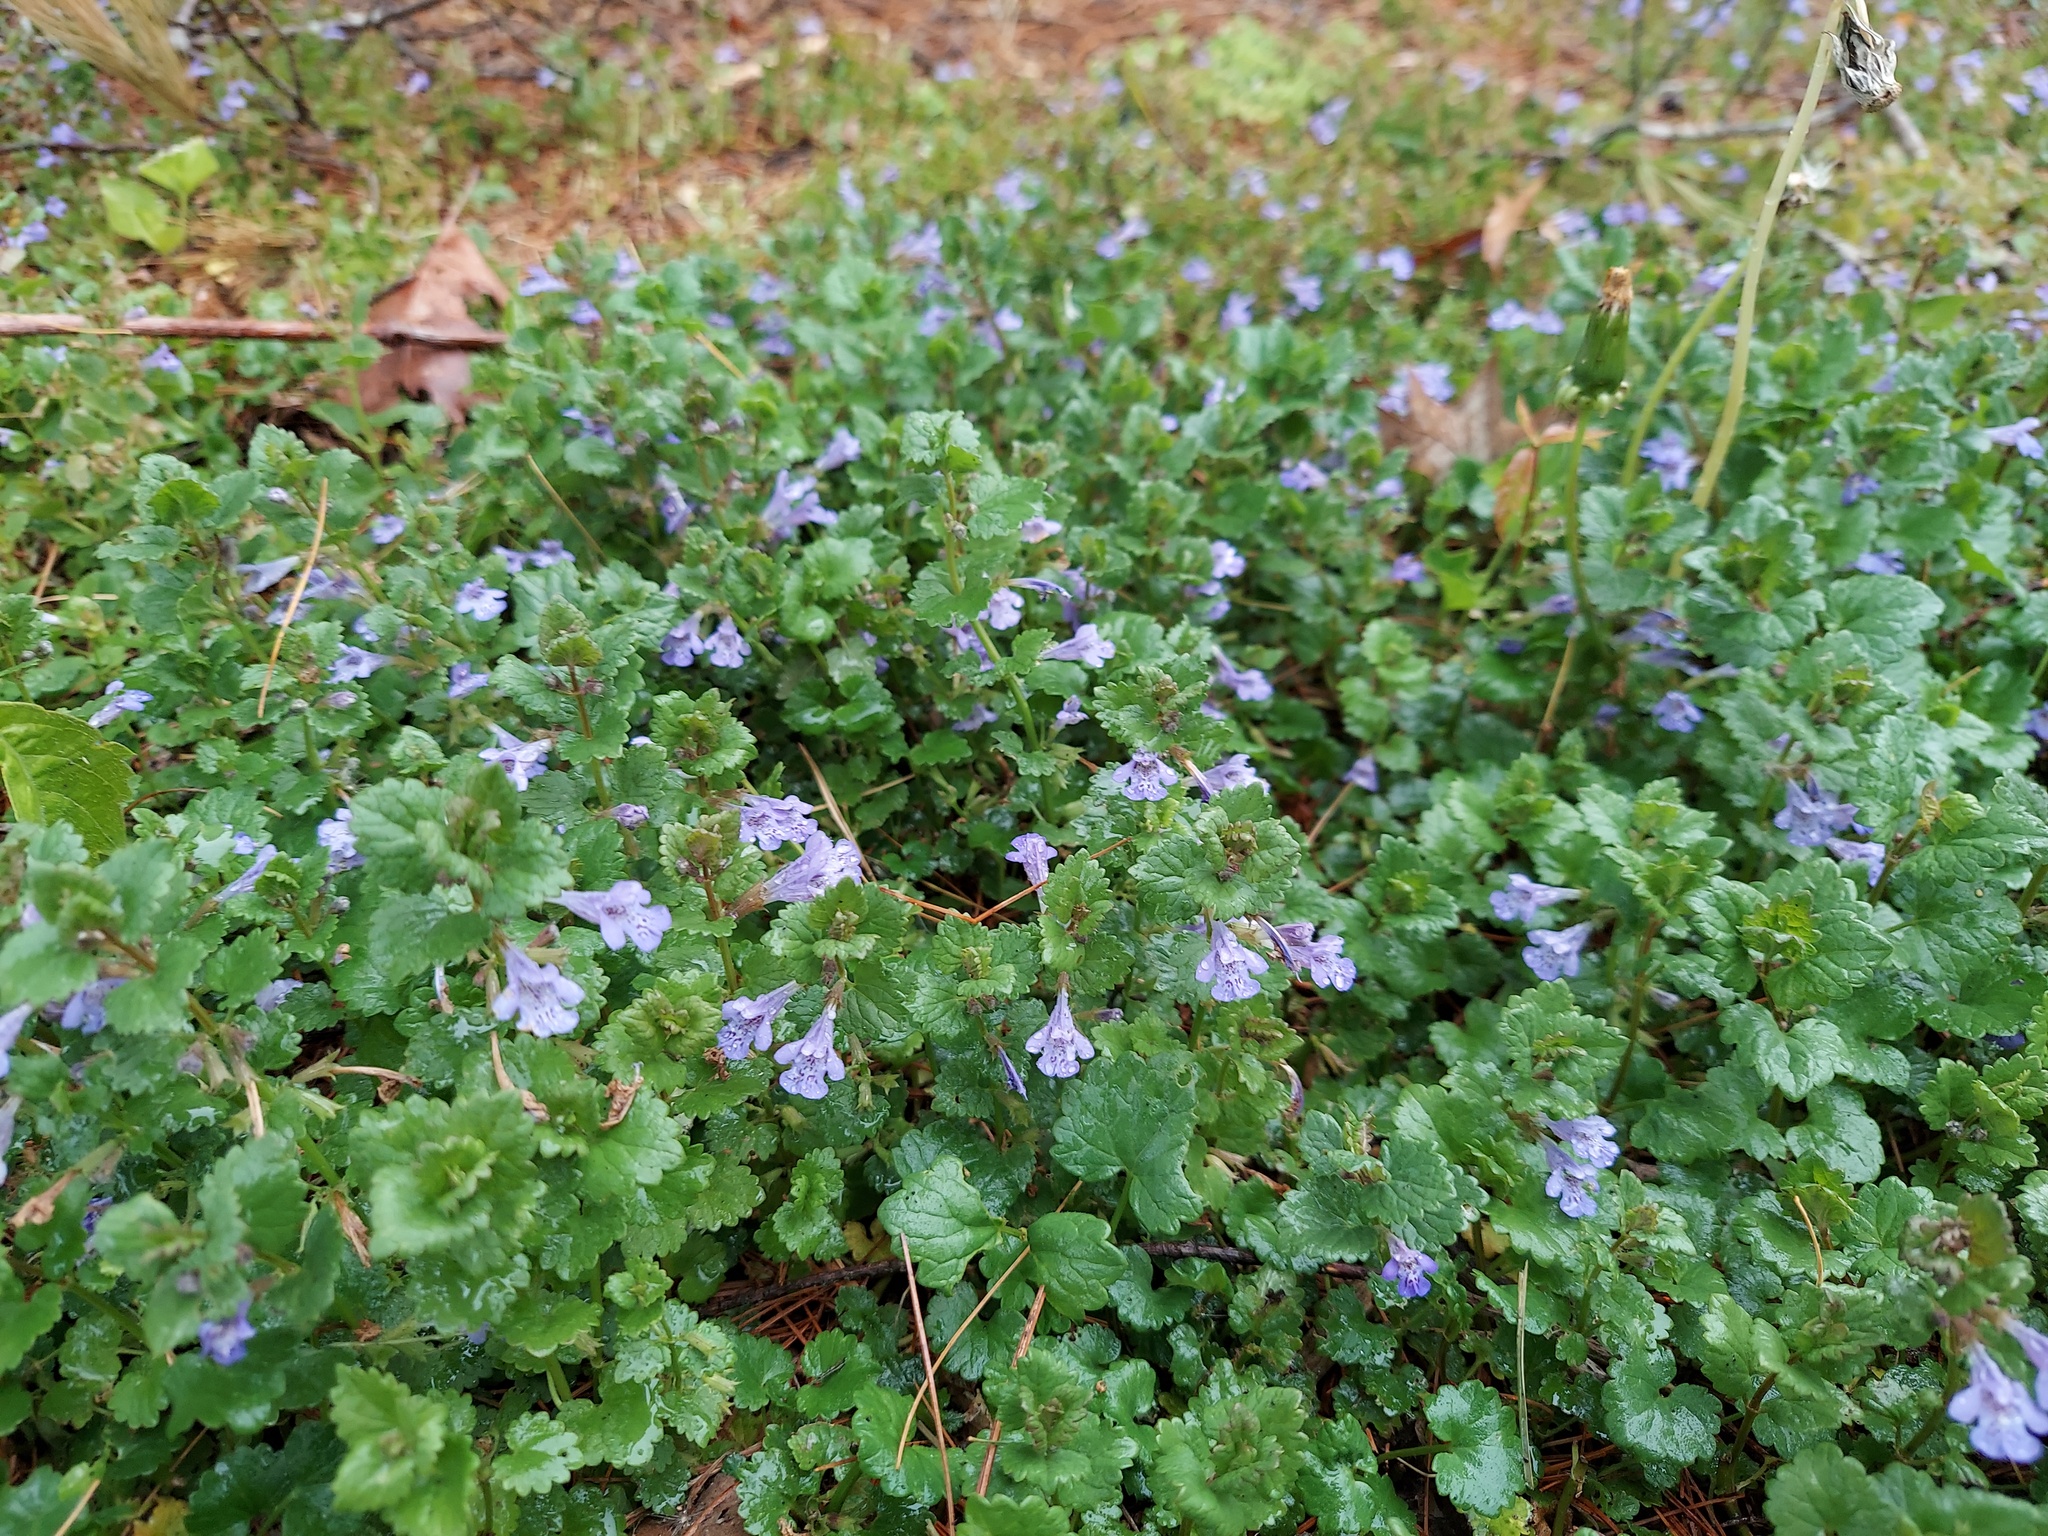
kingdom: Plantae
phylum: Tracheophyta
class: Magnoliopsida
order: Lamiales
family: Lamiaceae
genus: Glechoma
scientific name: Glechoma hederacea
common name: Ground ivy
